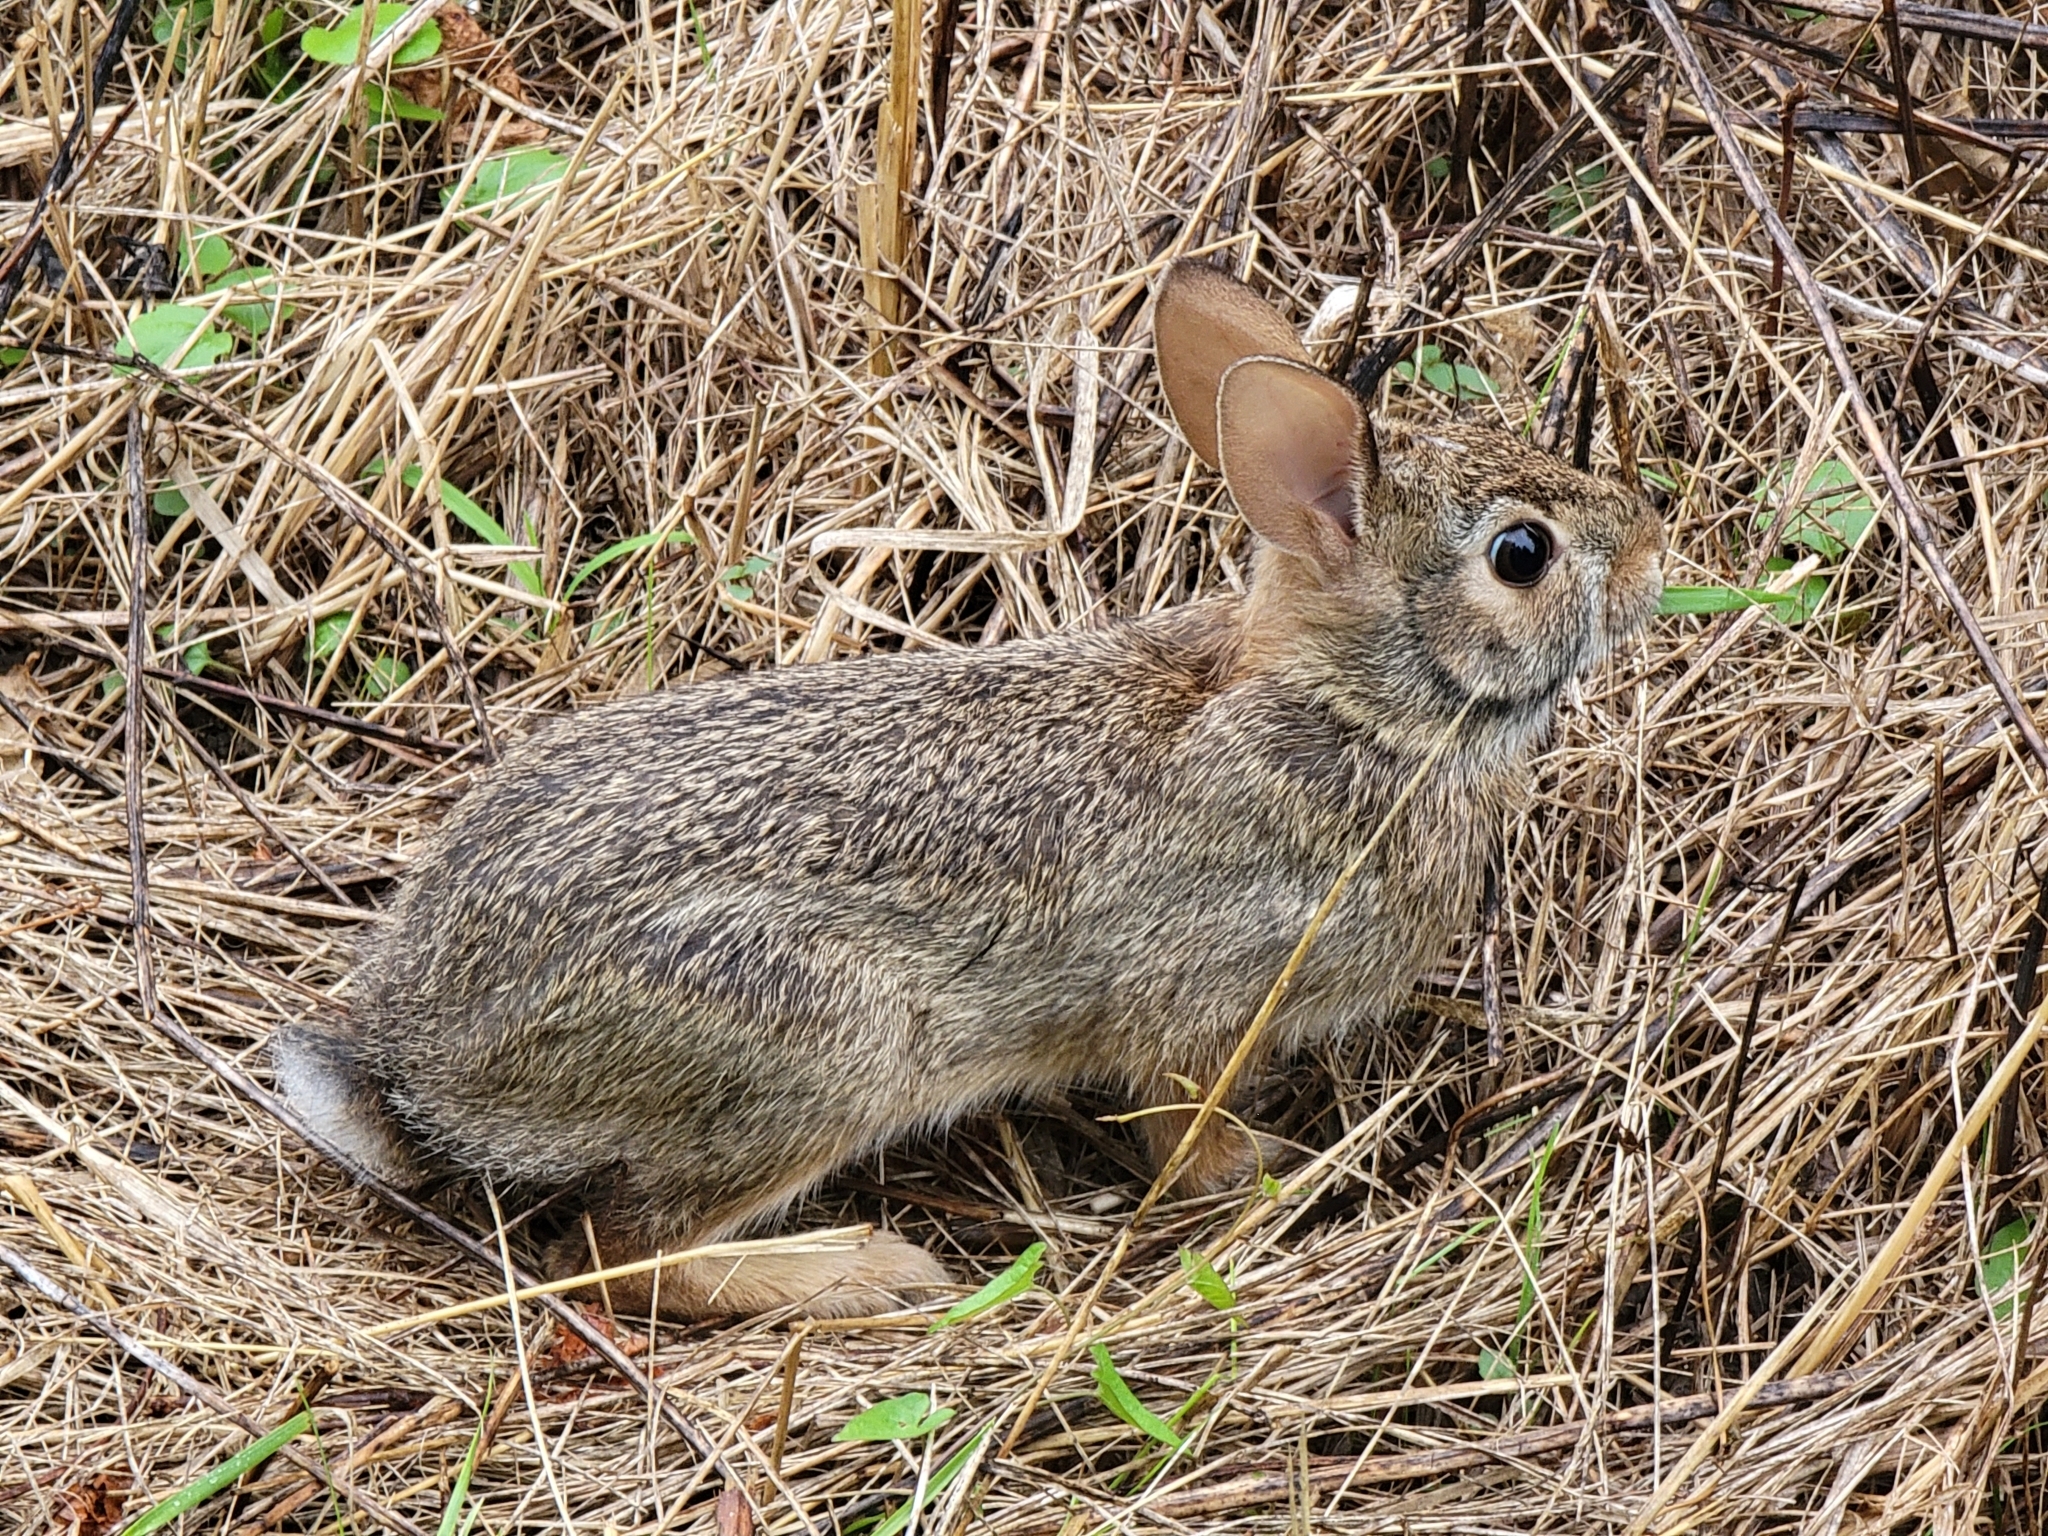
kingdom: Animalia
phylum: Chordata
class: Mammalia
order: Lagomorpha
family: Leporidae
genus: Sylvilagus
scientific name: Sylvilagus floridanus
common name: Eastern cottontail
